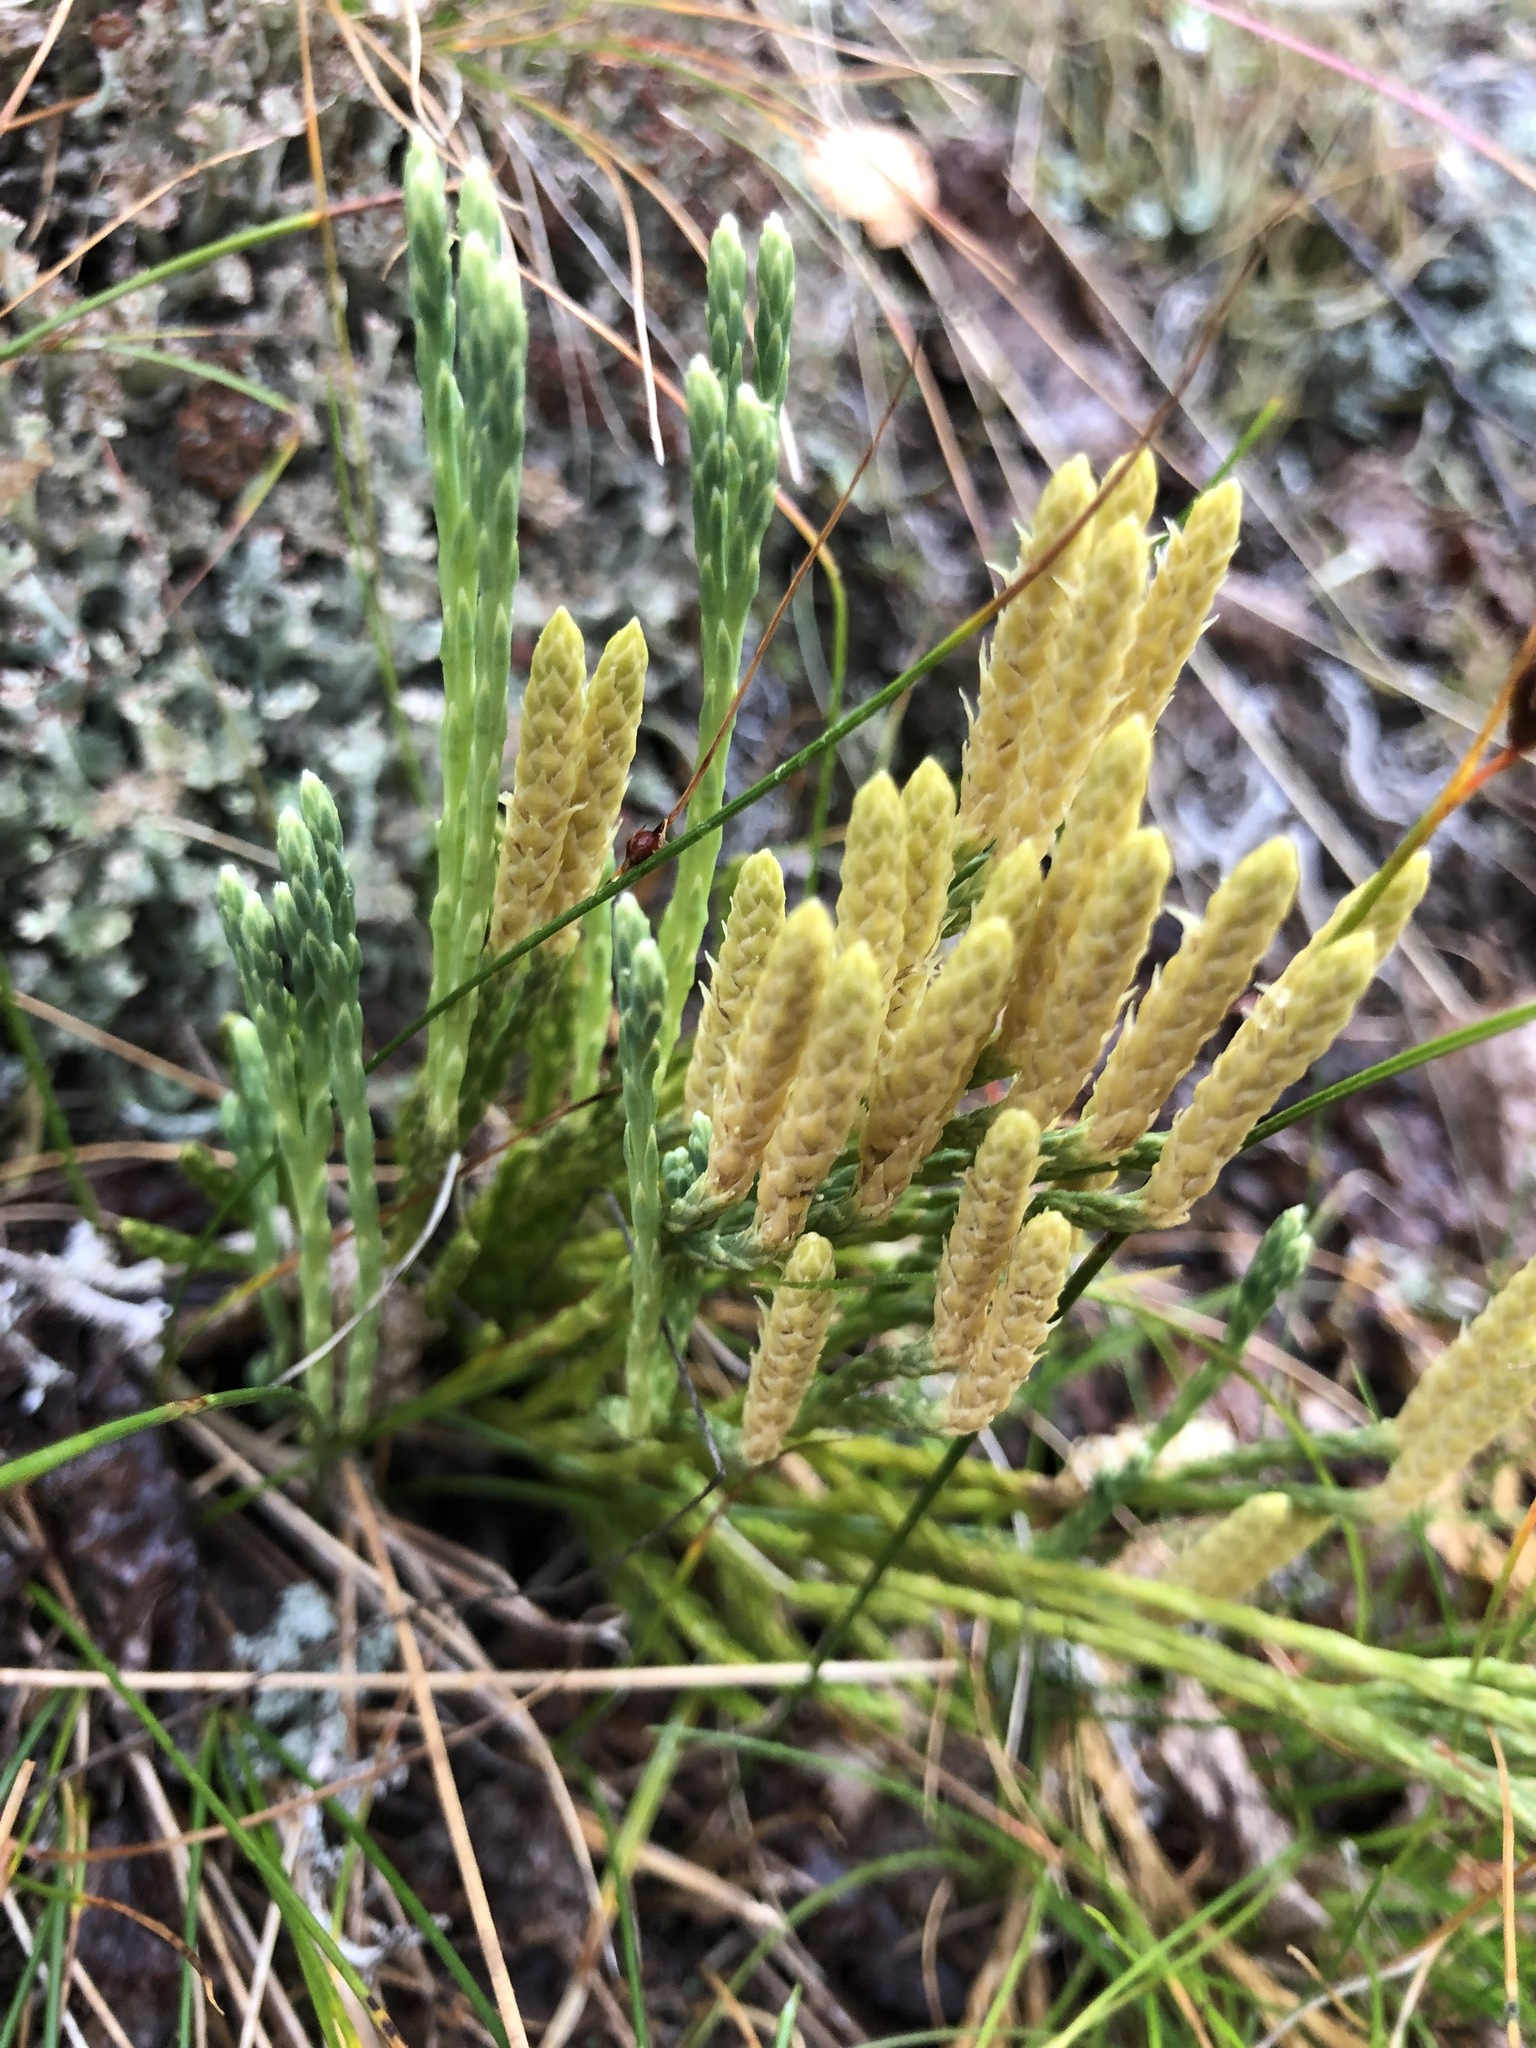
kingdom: Plantae
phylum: Tracheophyta
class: Lycopodiopsida
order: Lycopodiales
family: Lycopodiaceae
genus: Diphasiastrum
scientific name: Diphasiastrum alpinum
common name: Alpine clubmoss
